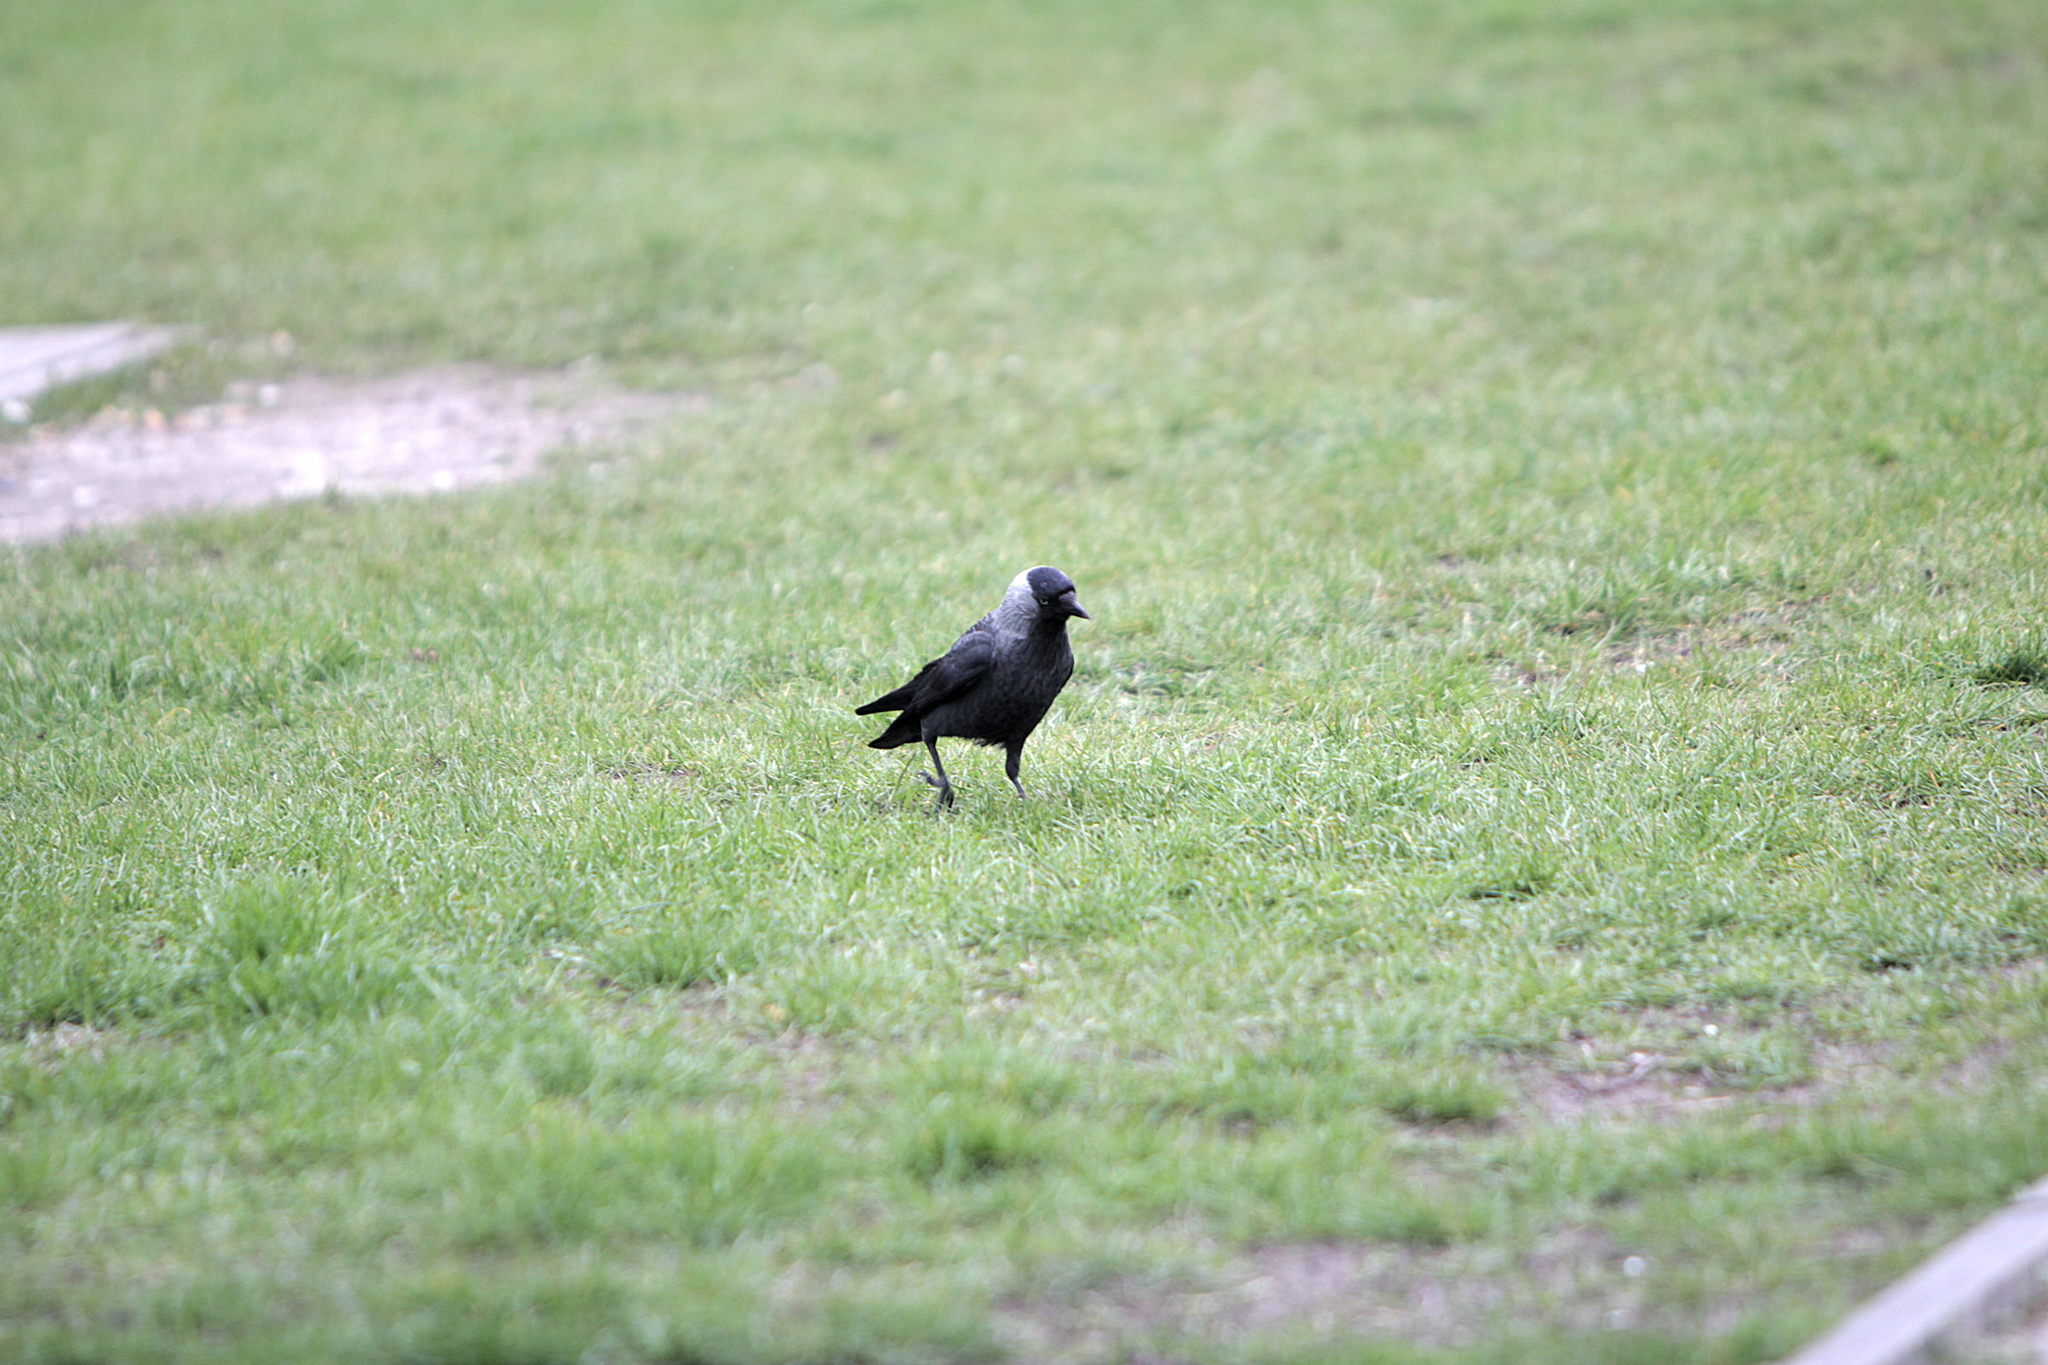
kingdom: Animalia
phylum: Chordata
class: Aves
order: Passeriformes
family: Corvidae
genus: Coloeus
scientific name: Coloeus monedula
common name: Western jackdaw
